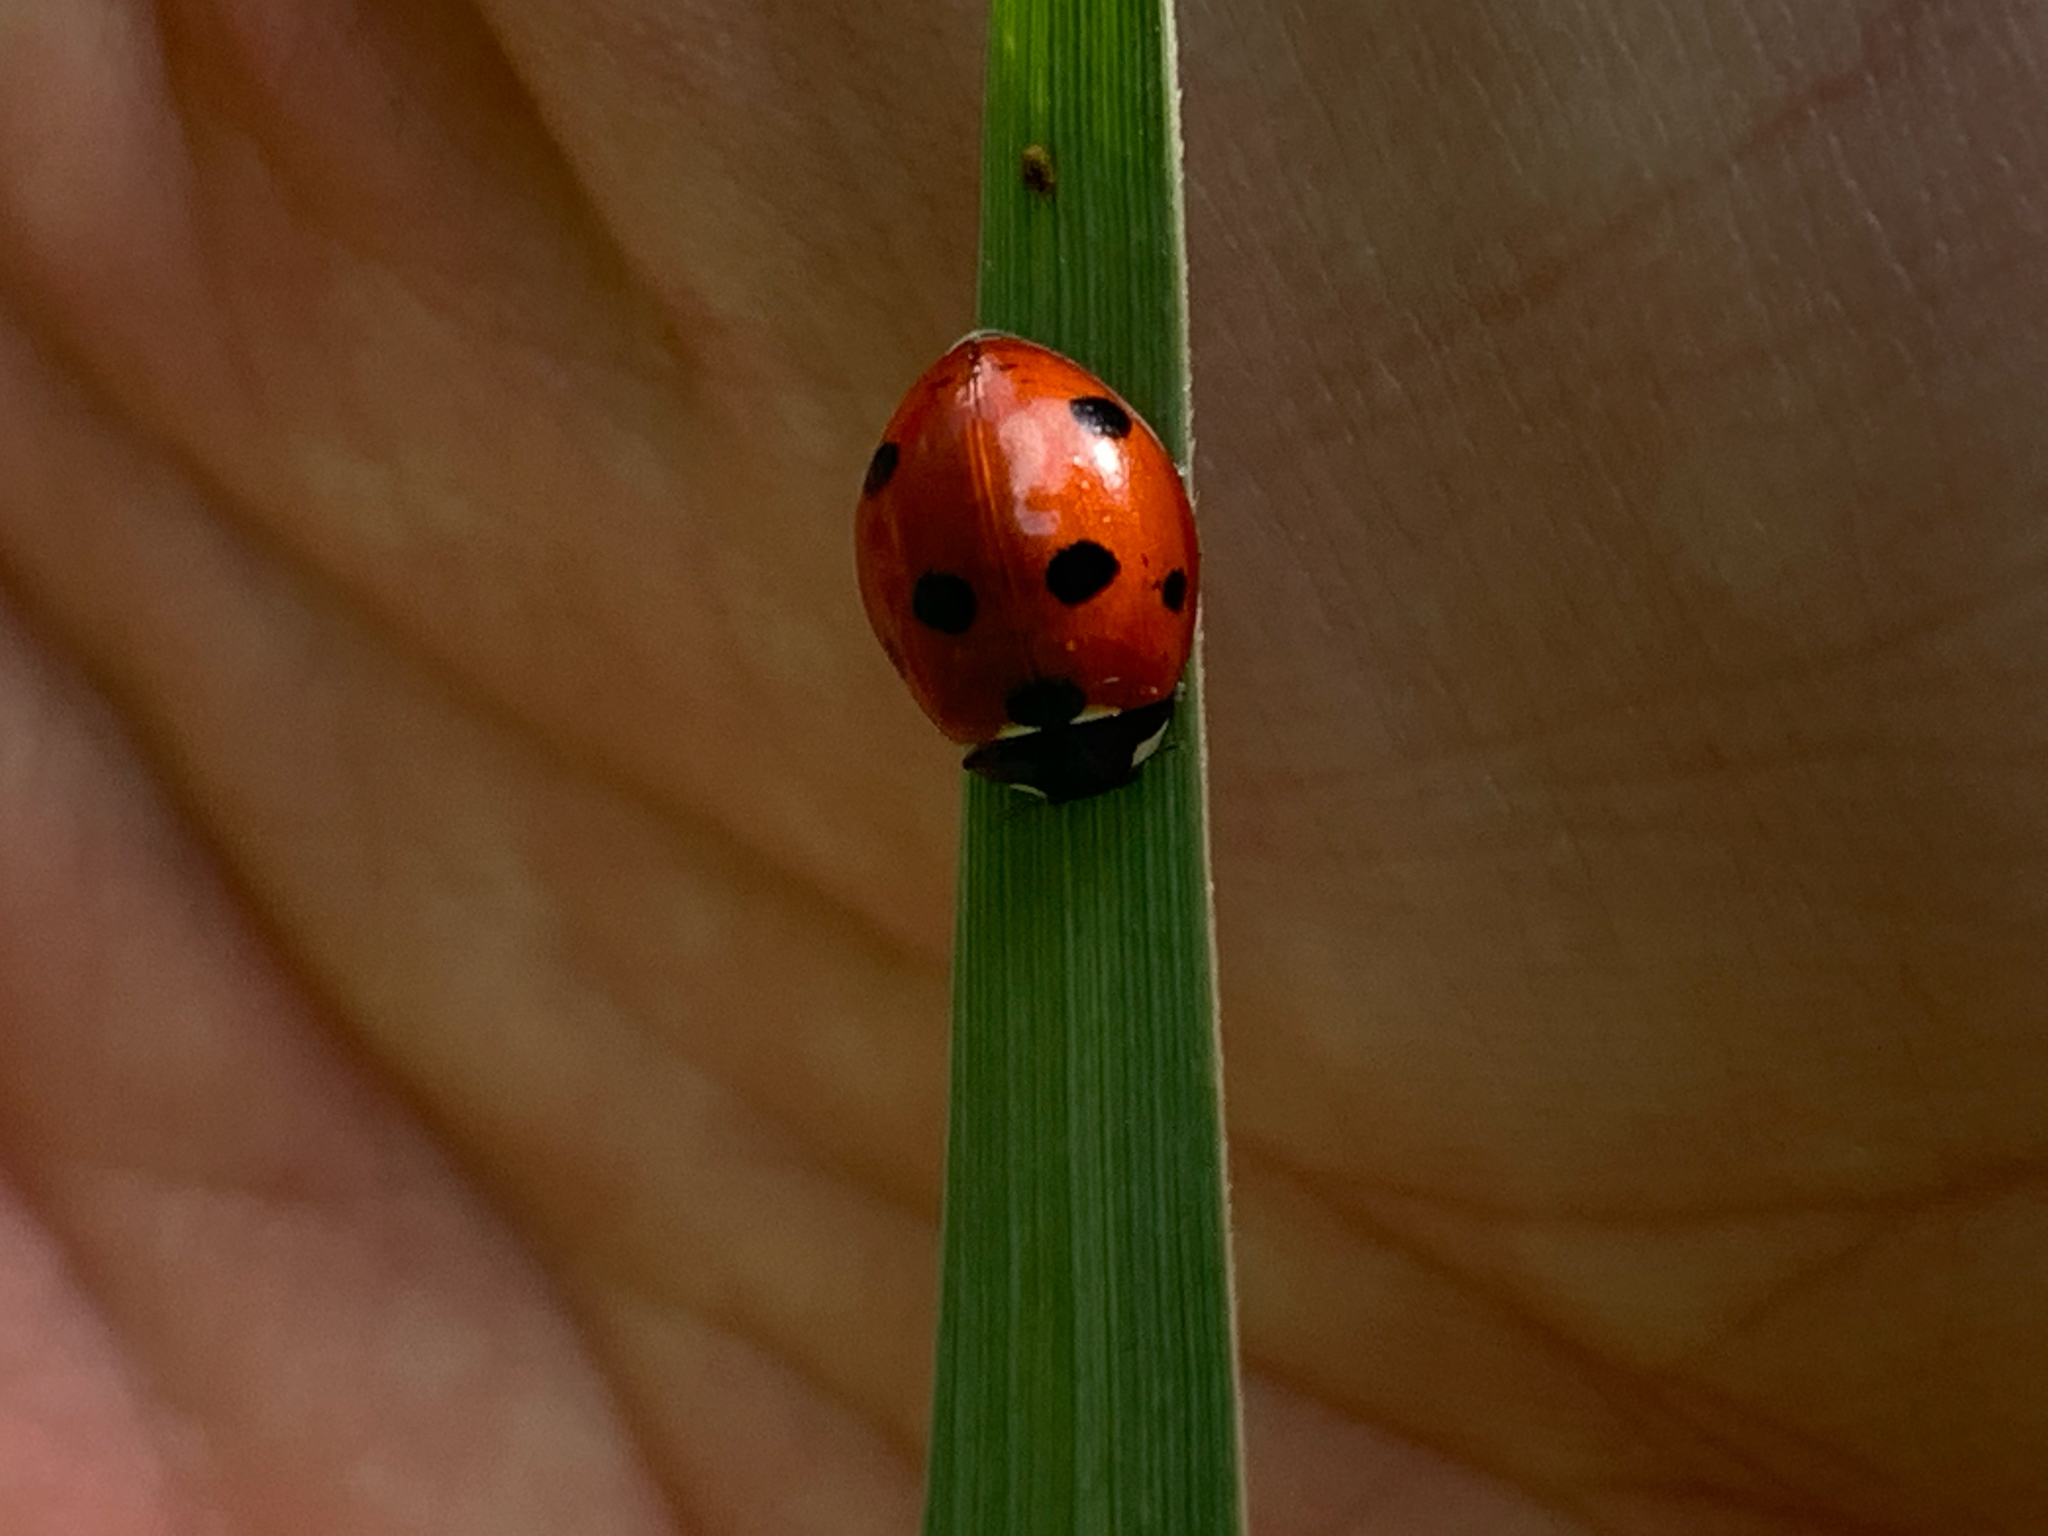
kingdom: Animalia
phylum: Arthropoda
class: Insecta
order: Coleoptera
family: Coccinellidae
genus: Coccinella
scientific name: Coccinella septempunctata
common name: Sevenspotted lady beetle
